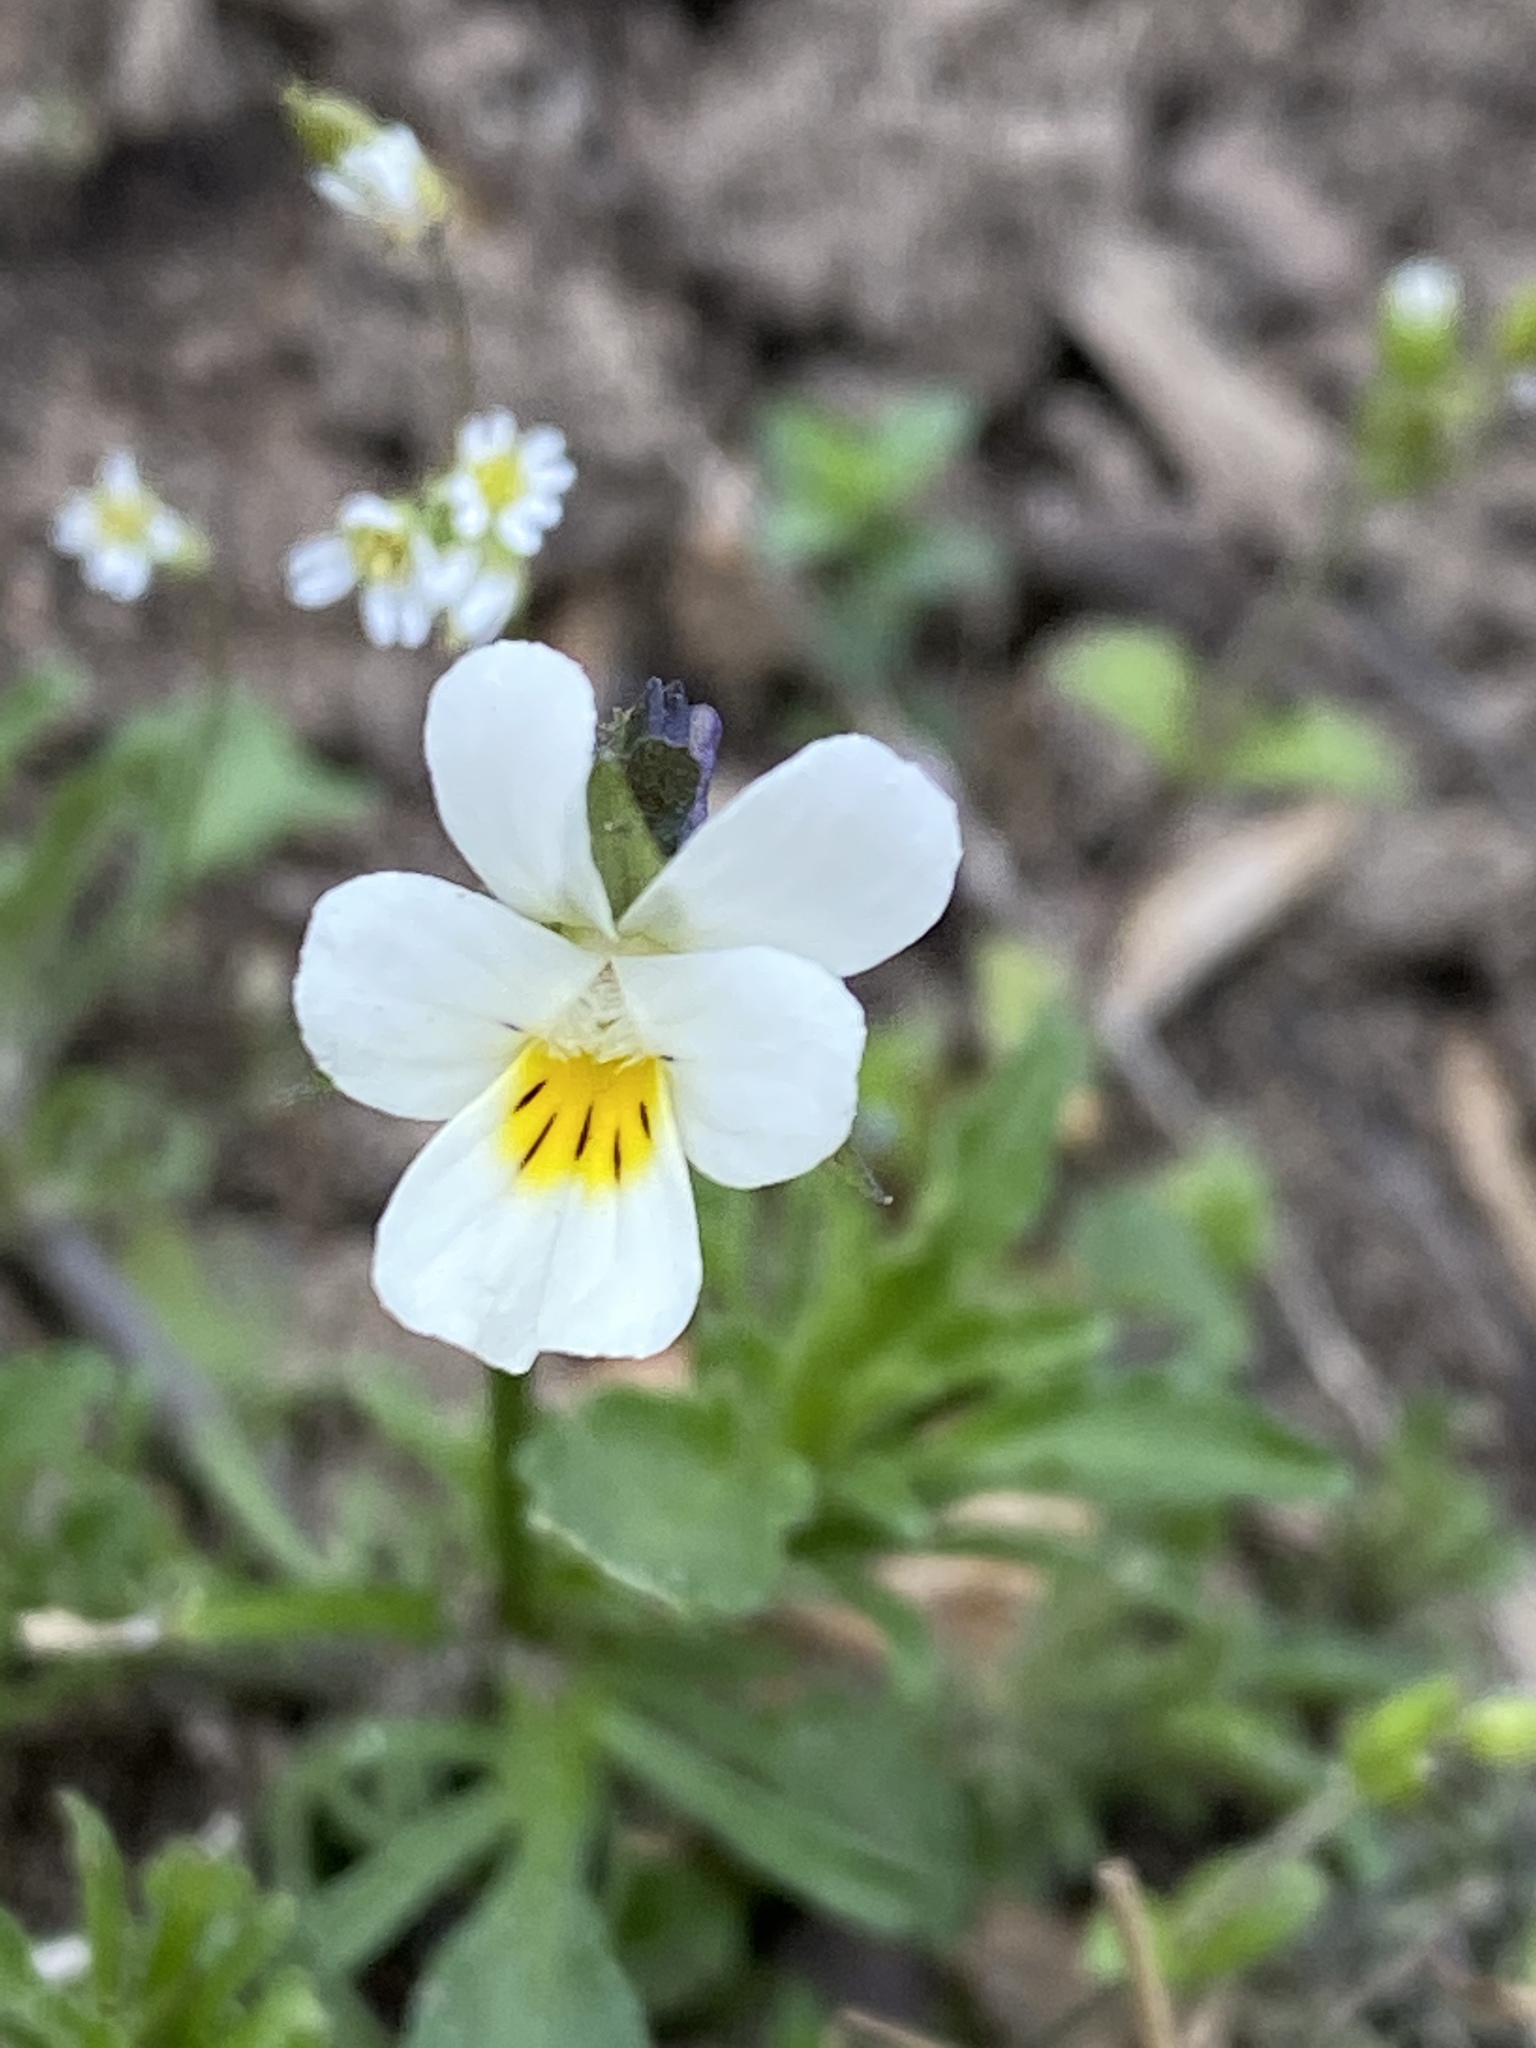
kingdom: Plantae
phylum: Tracheophyta
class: Magnoliopsida
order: Malpighiales
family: Violaceae
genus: Viola
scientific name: Viola arvensis
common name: Field pansy
